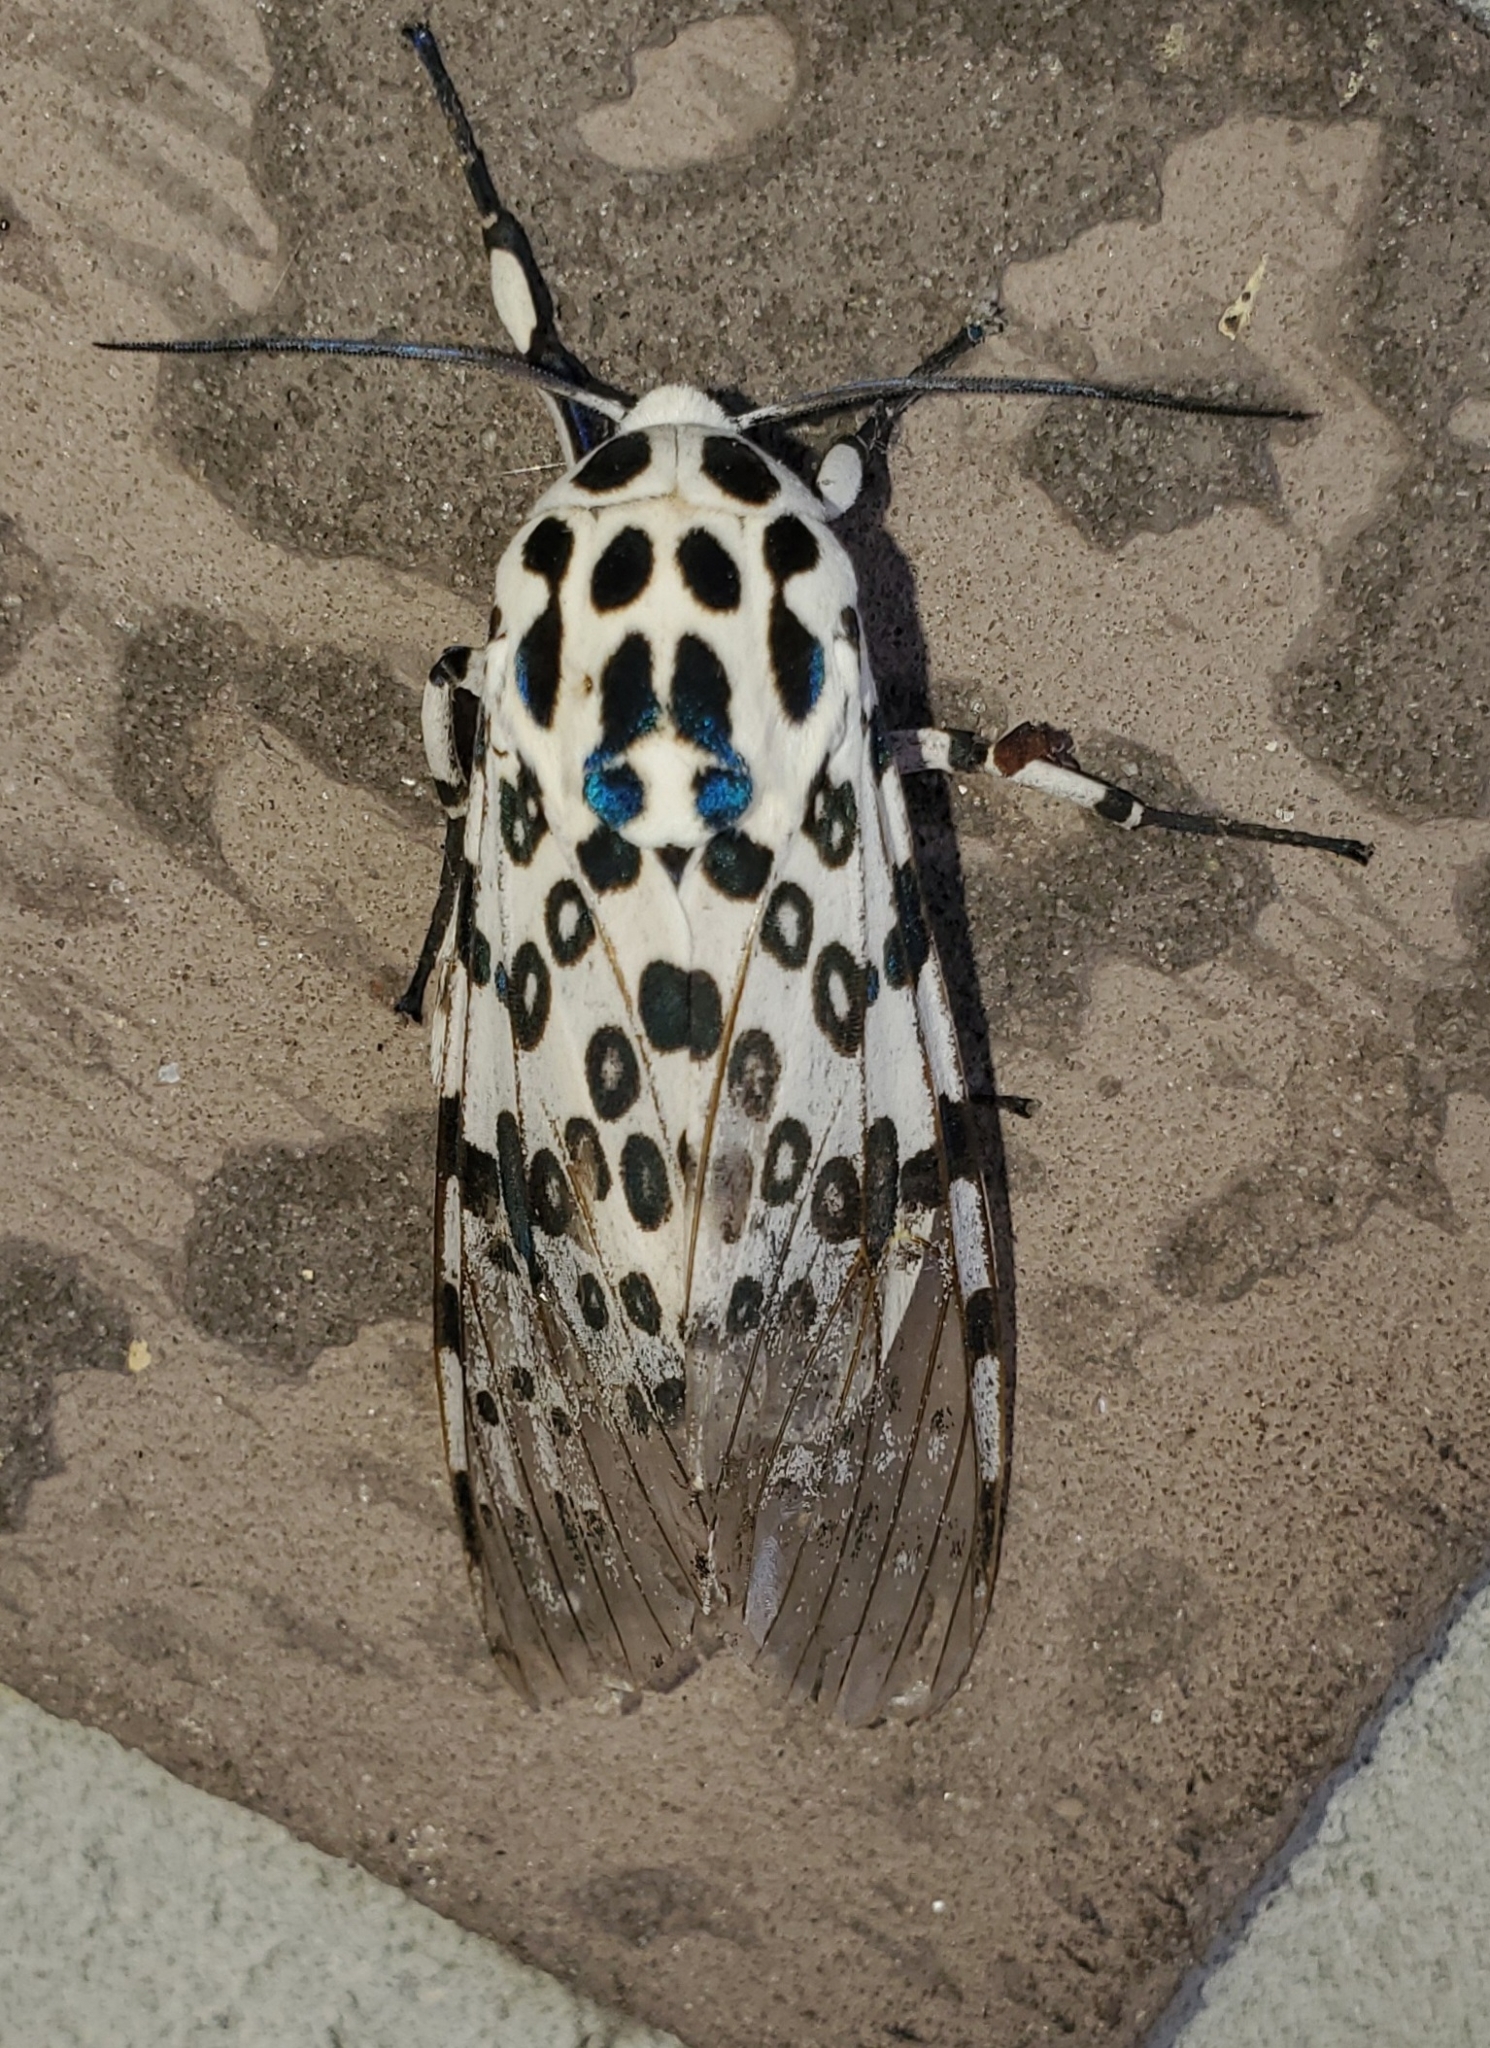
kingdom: Animalia
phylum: Arthropoda
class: Insecta
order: Lepidoptera
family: Erebidae
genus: Hypercompe
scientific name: Hypercompe scribonia
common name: Giant leopard moth
